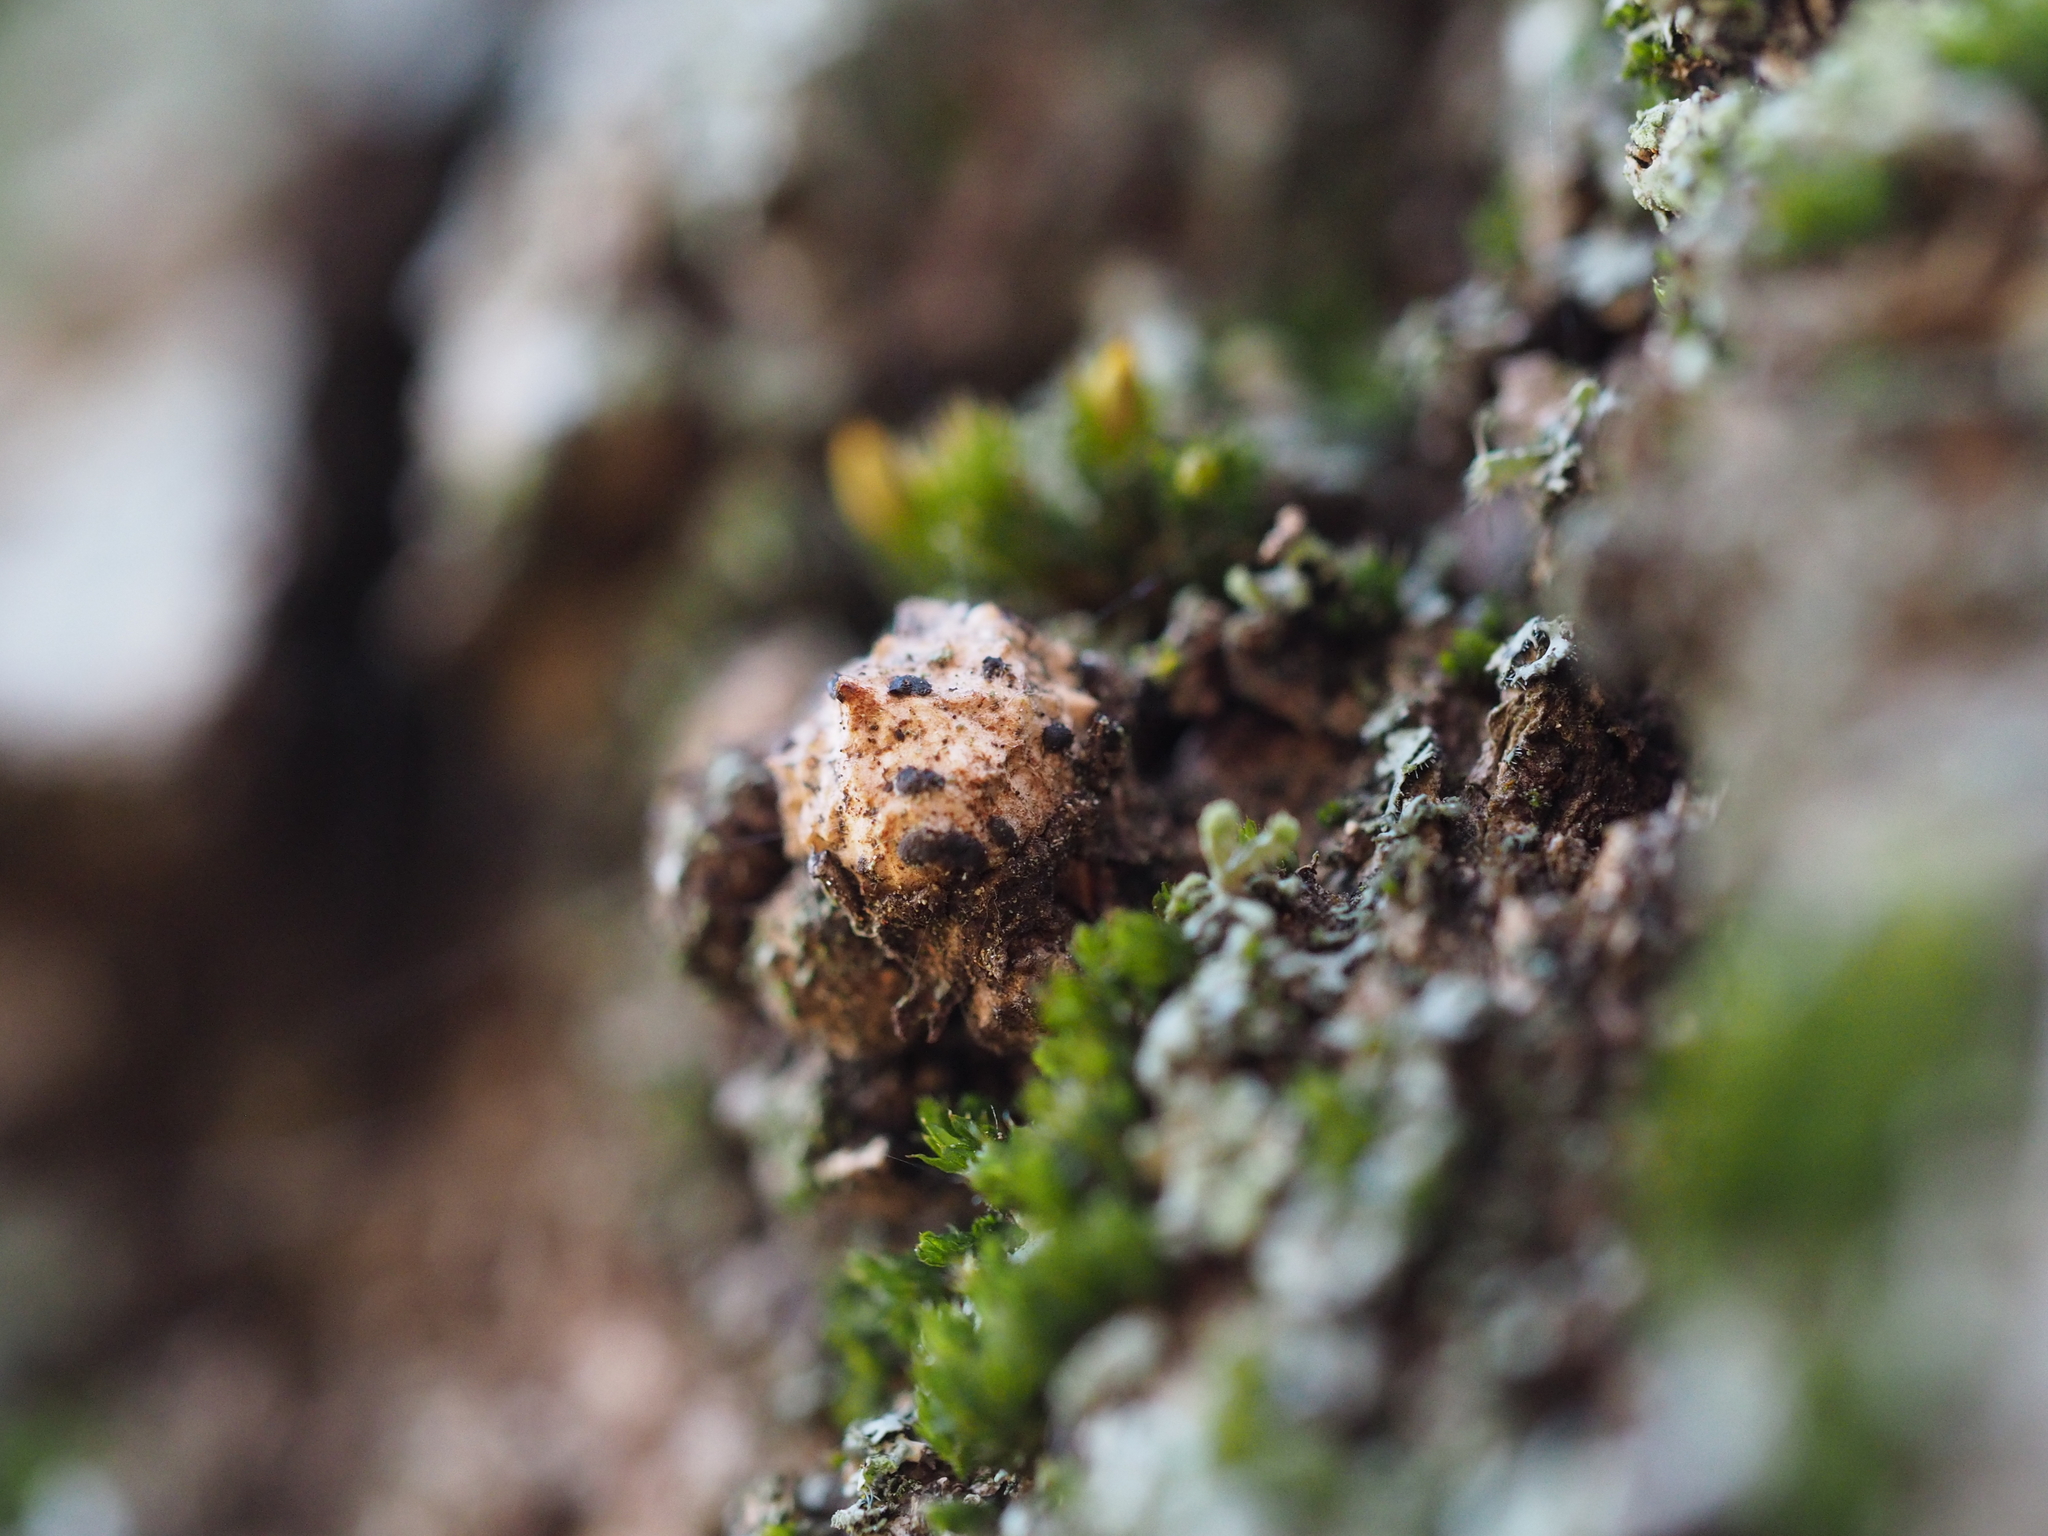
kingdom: Animalia
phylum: Arthropoda
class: Insecta
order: Hymenoptera
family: Cynipidae
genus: Andricus
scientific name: Andricus truncicola
